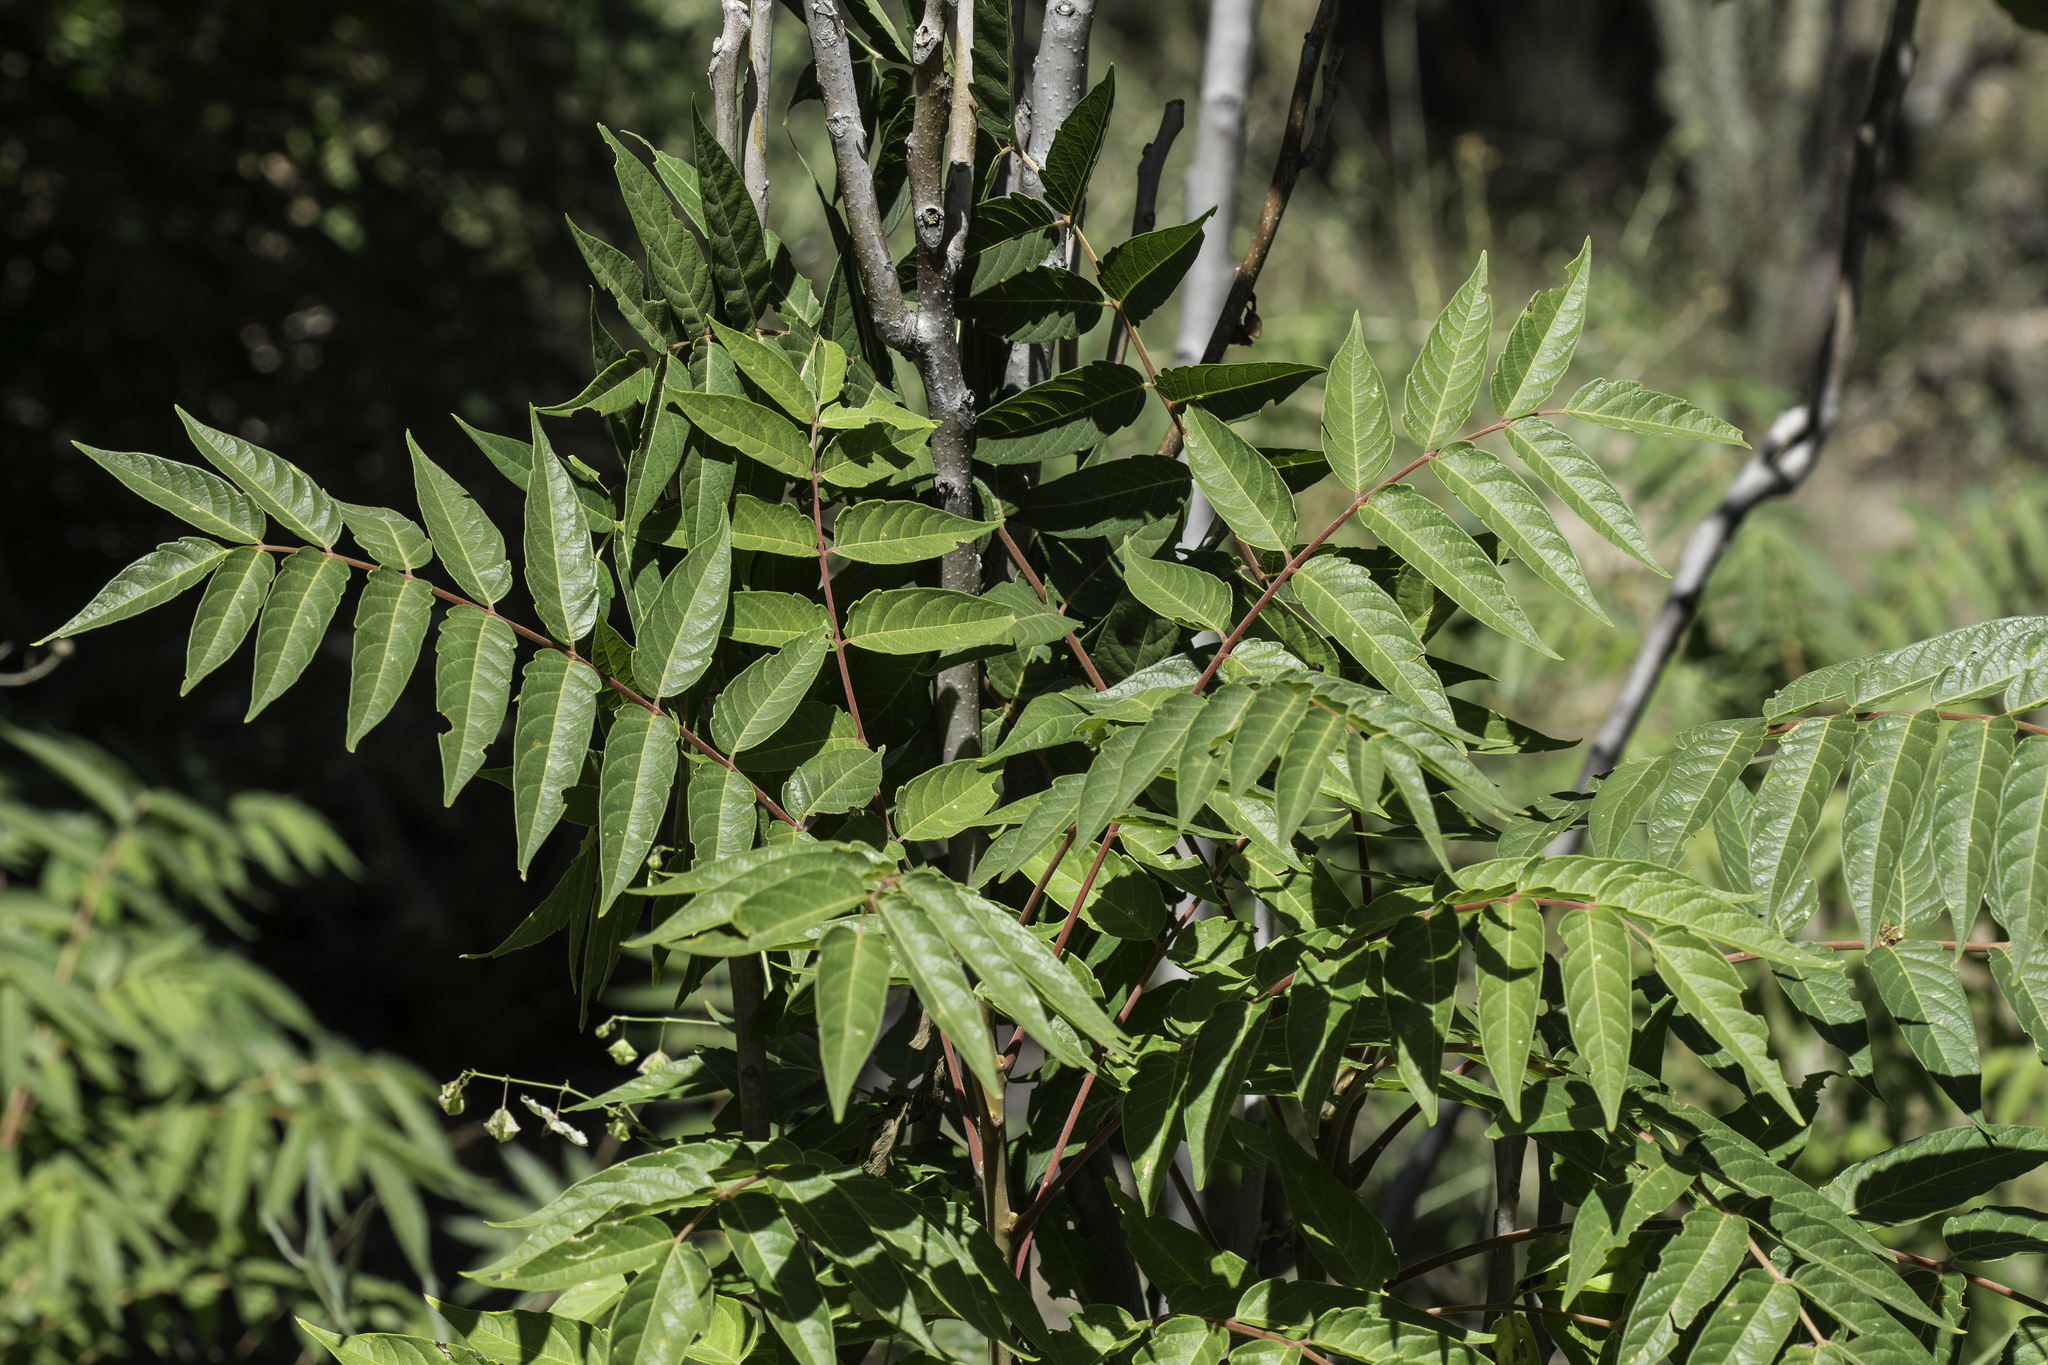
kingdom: Plantae
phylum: Tracheophyta
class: Magnoliopsida
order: Sapindales
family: Simaroubaceae
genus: Ailanthus
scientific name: Ailanthus altissima
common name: Tree-of-heaven
